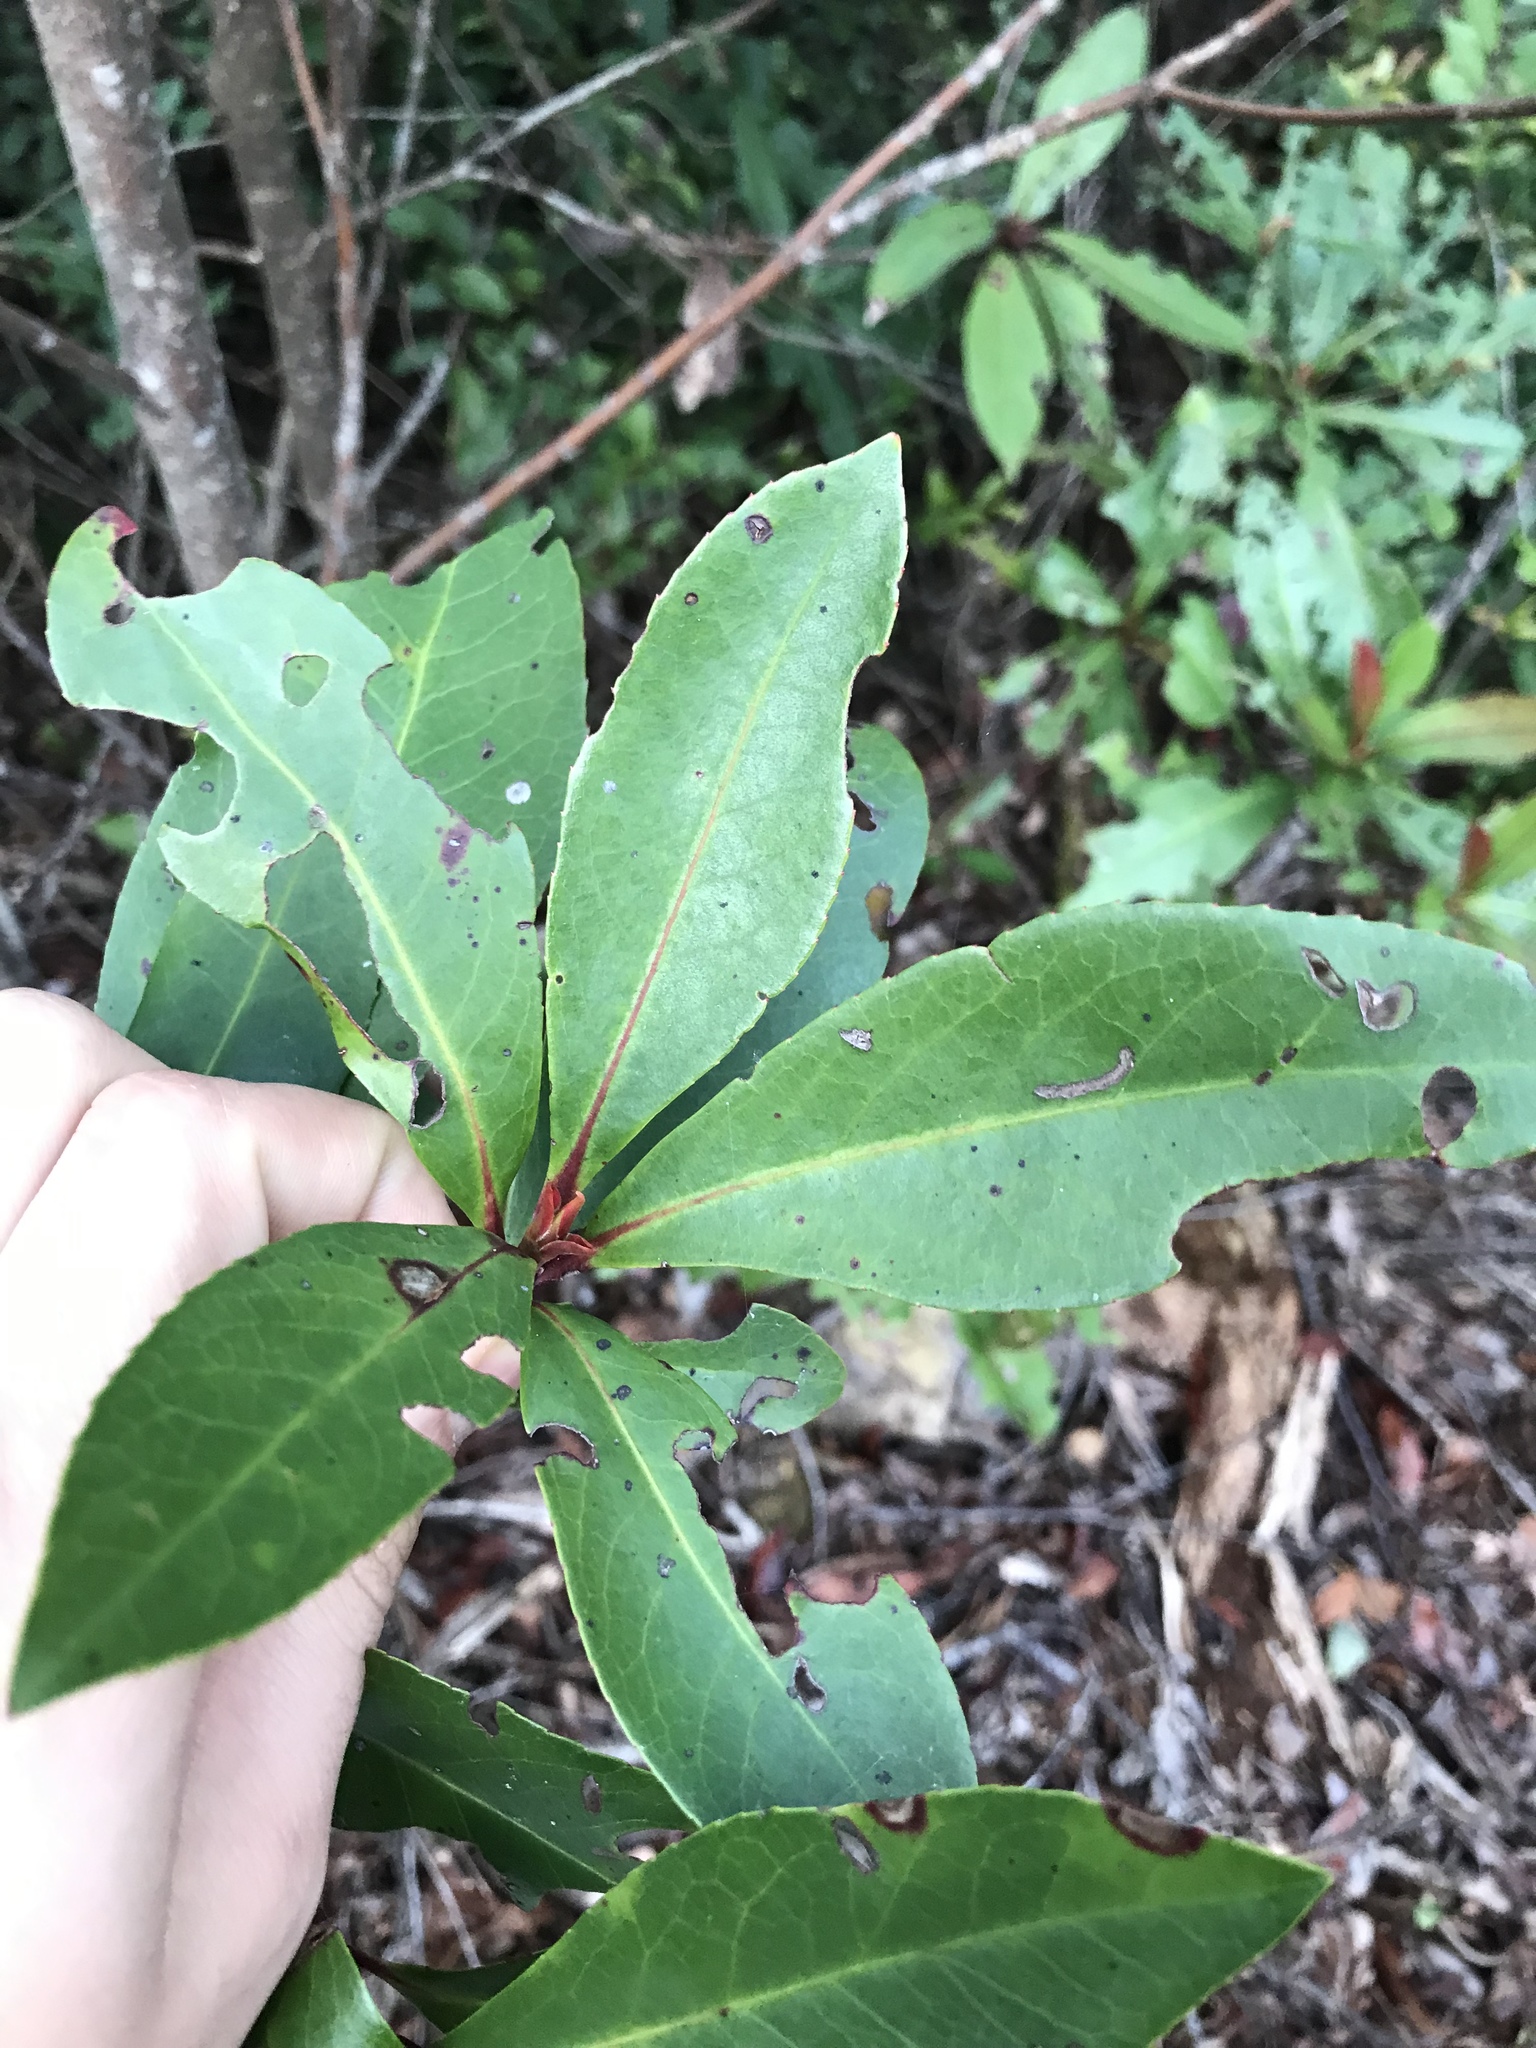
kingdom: Plantae
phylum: Tracheophyta
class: Magnoliopsida
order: Ericales
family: Theaceae
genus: Gordonia
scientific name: Gordonia lasianthus
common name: Loblolly bay
